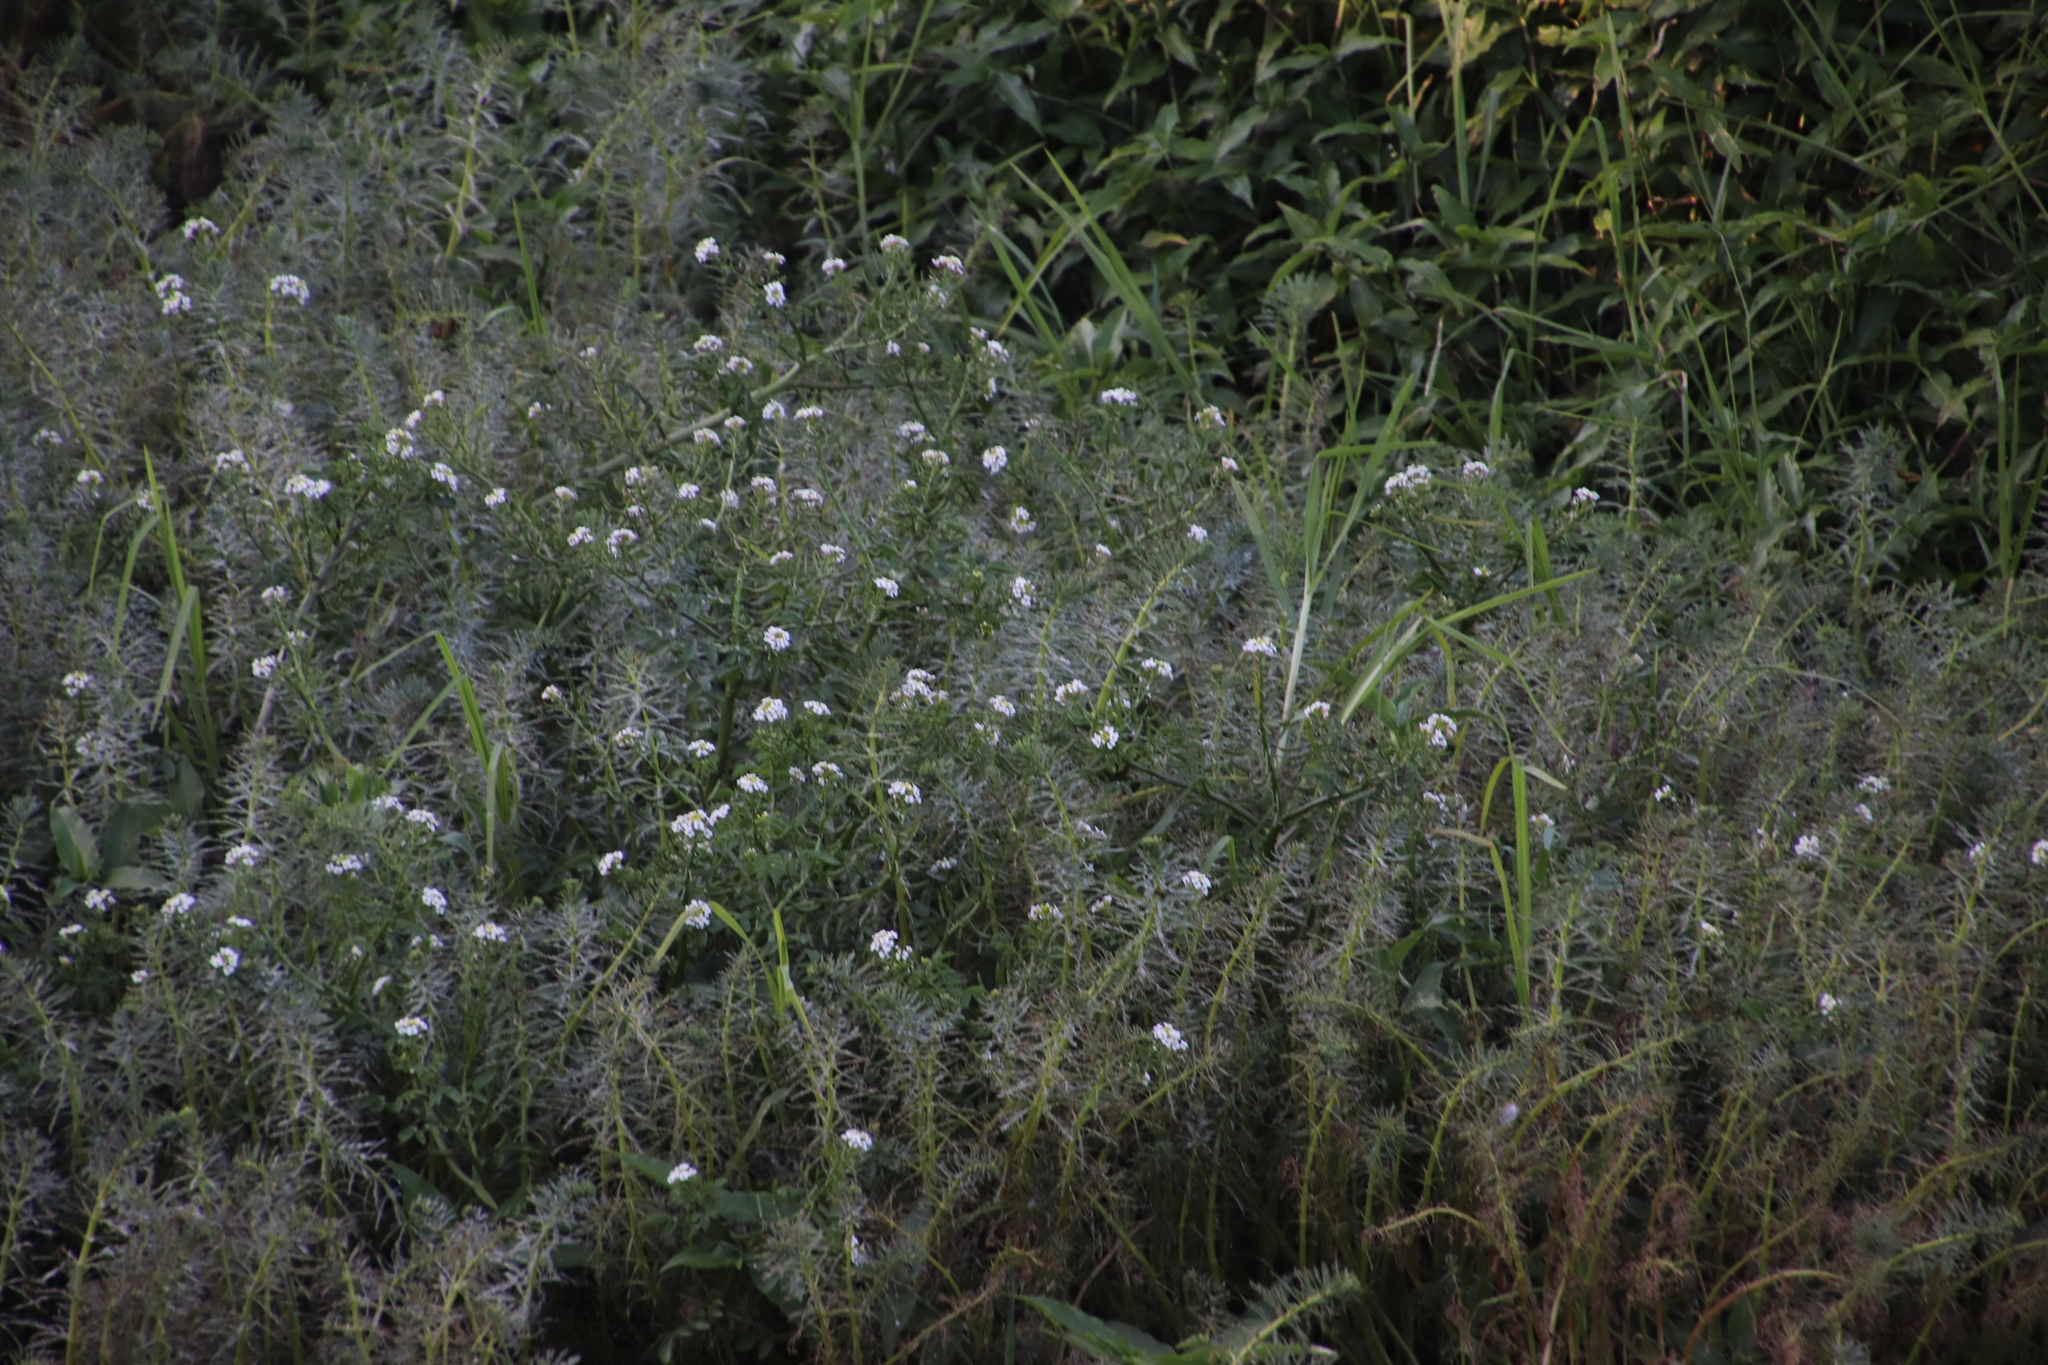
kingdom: Plantae
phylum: Tracheophyta
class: Magnoliopsida
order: Brassicales
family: Brassicaceae
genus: Nasturtium
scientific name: Nasturtium officinale
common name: Watercress
